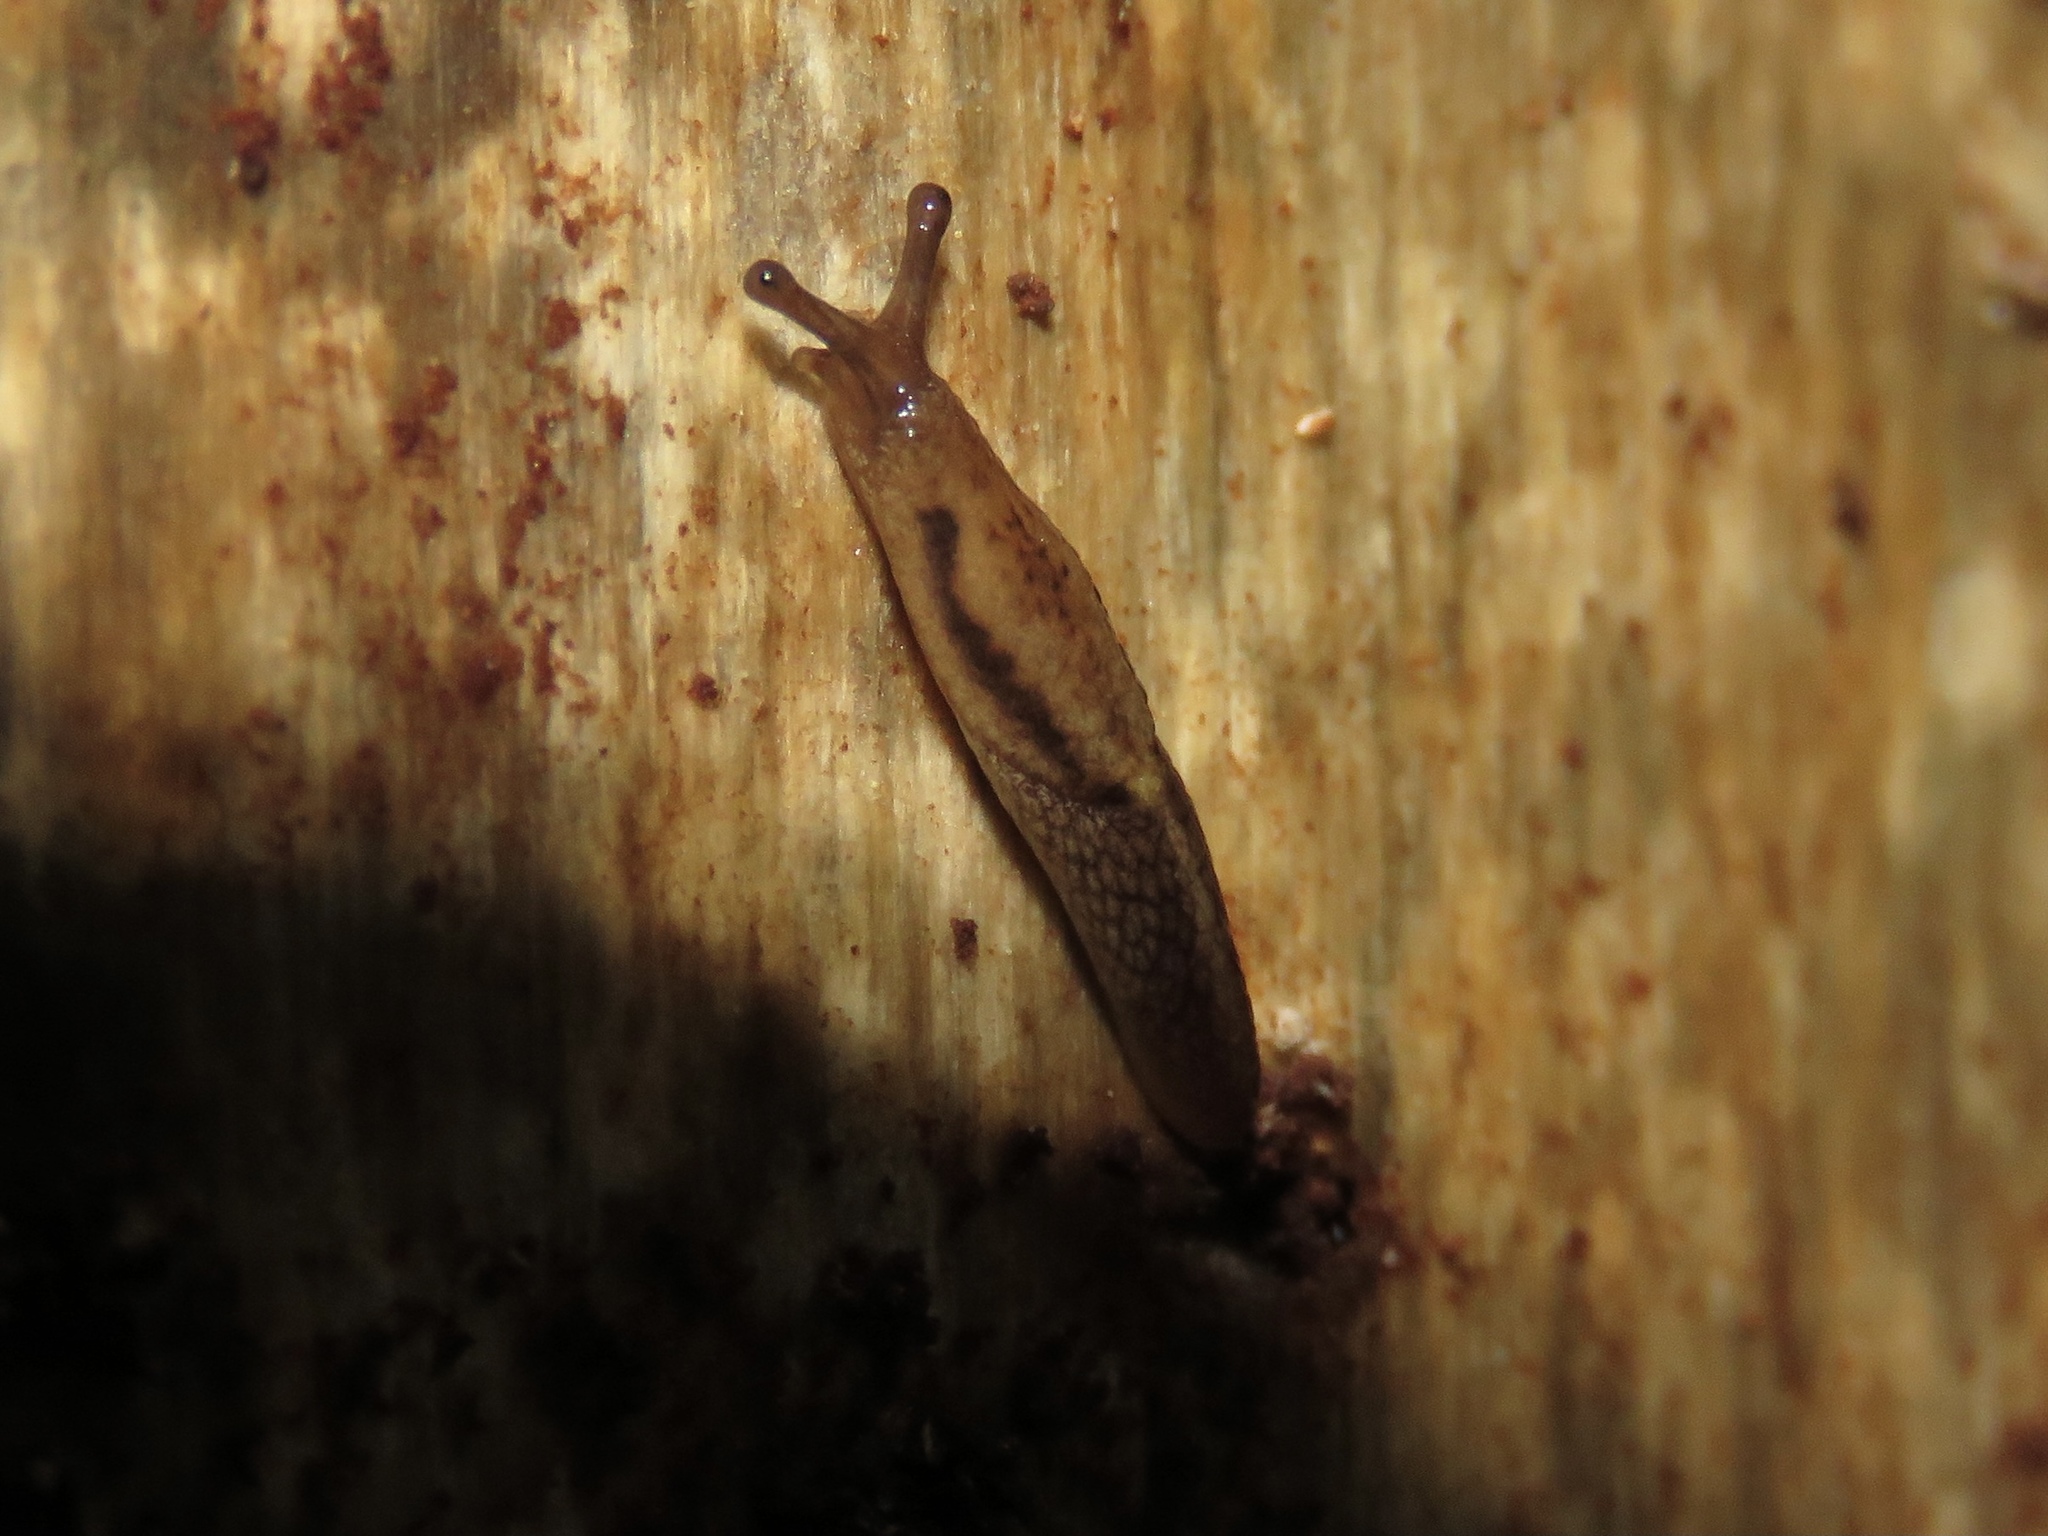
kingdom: Animalia
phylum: Mollusca
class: Gastropoda
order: Stylommatophora
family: Ariolimacidae
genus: Prophysaon
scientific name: Prophysaon andersonii
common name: Reticulate taildropper
